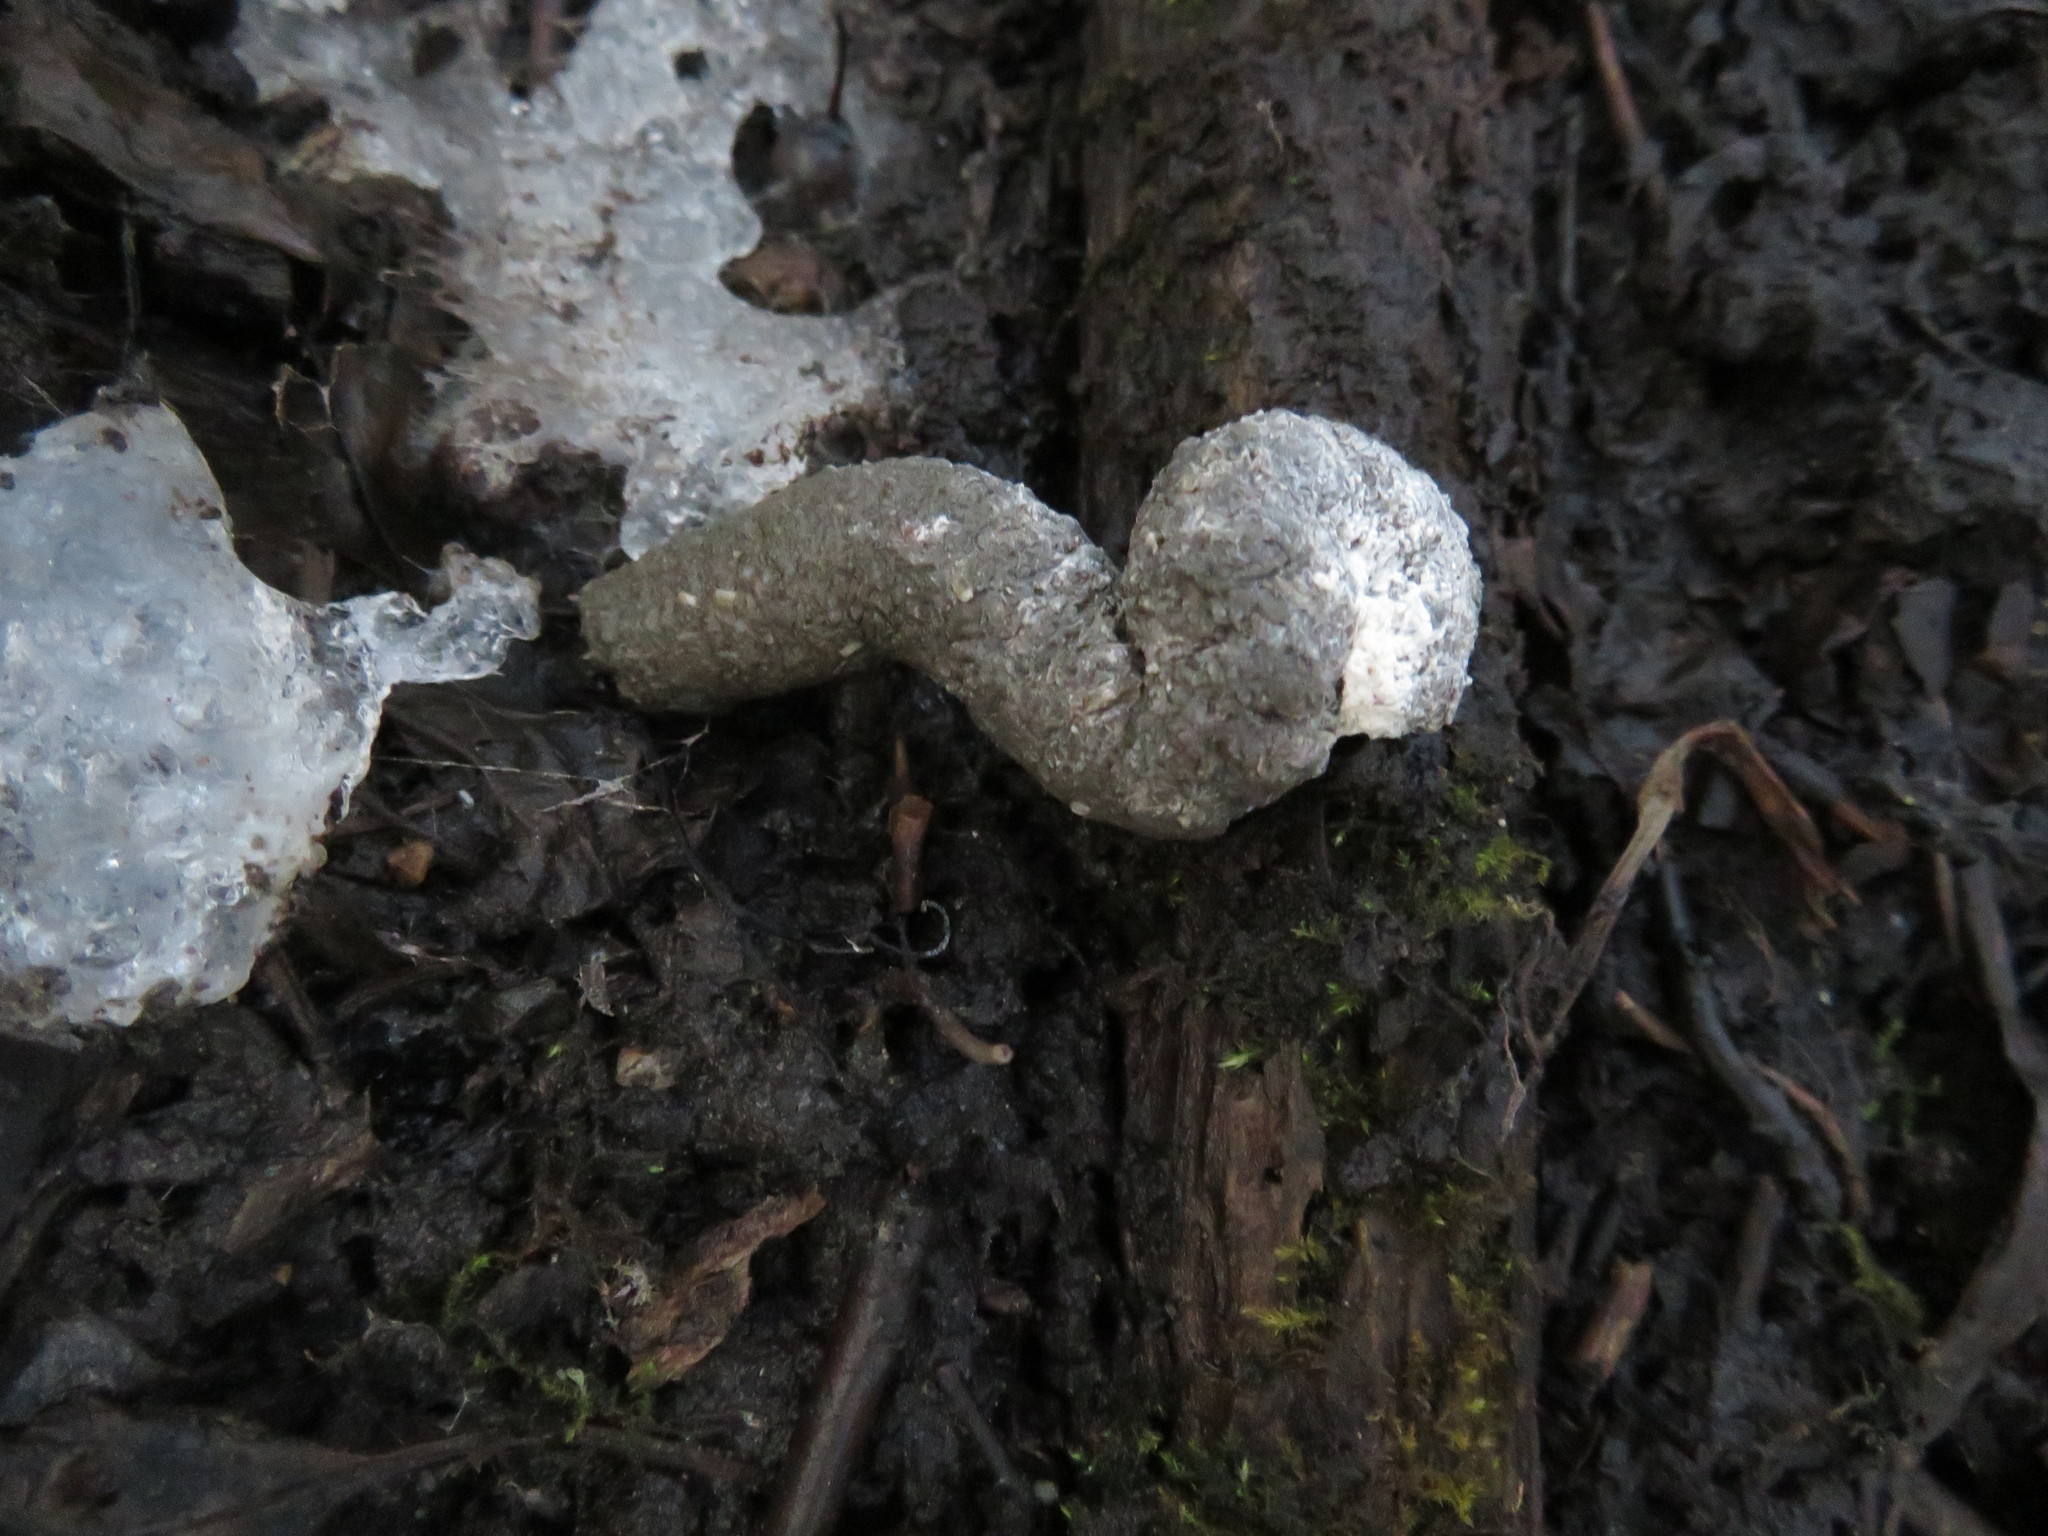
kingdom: Animalia
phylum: Chordata
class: Aves
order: Galliformes
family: Phasianidae
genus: Meleagris
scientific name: Meleagris gallopavo
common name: Wild turkey
